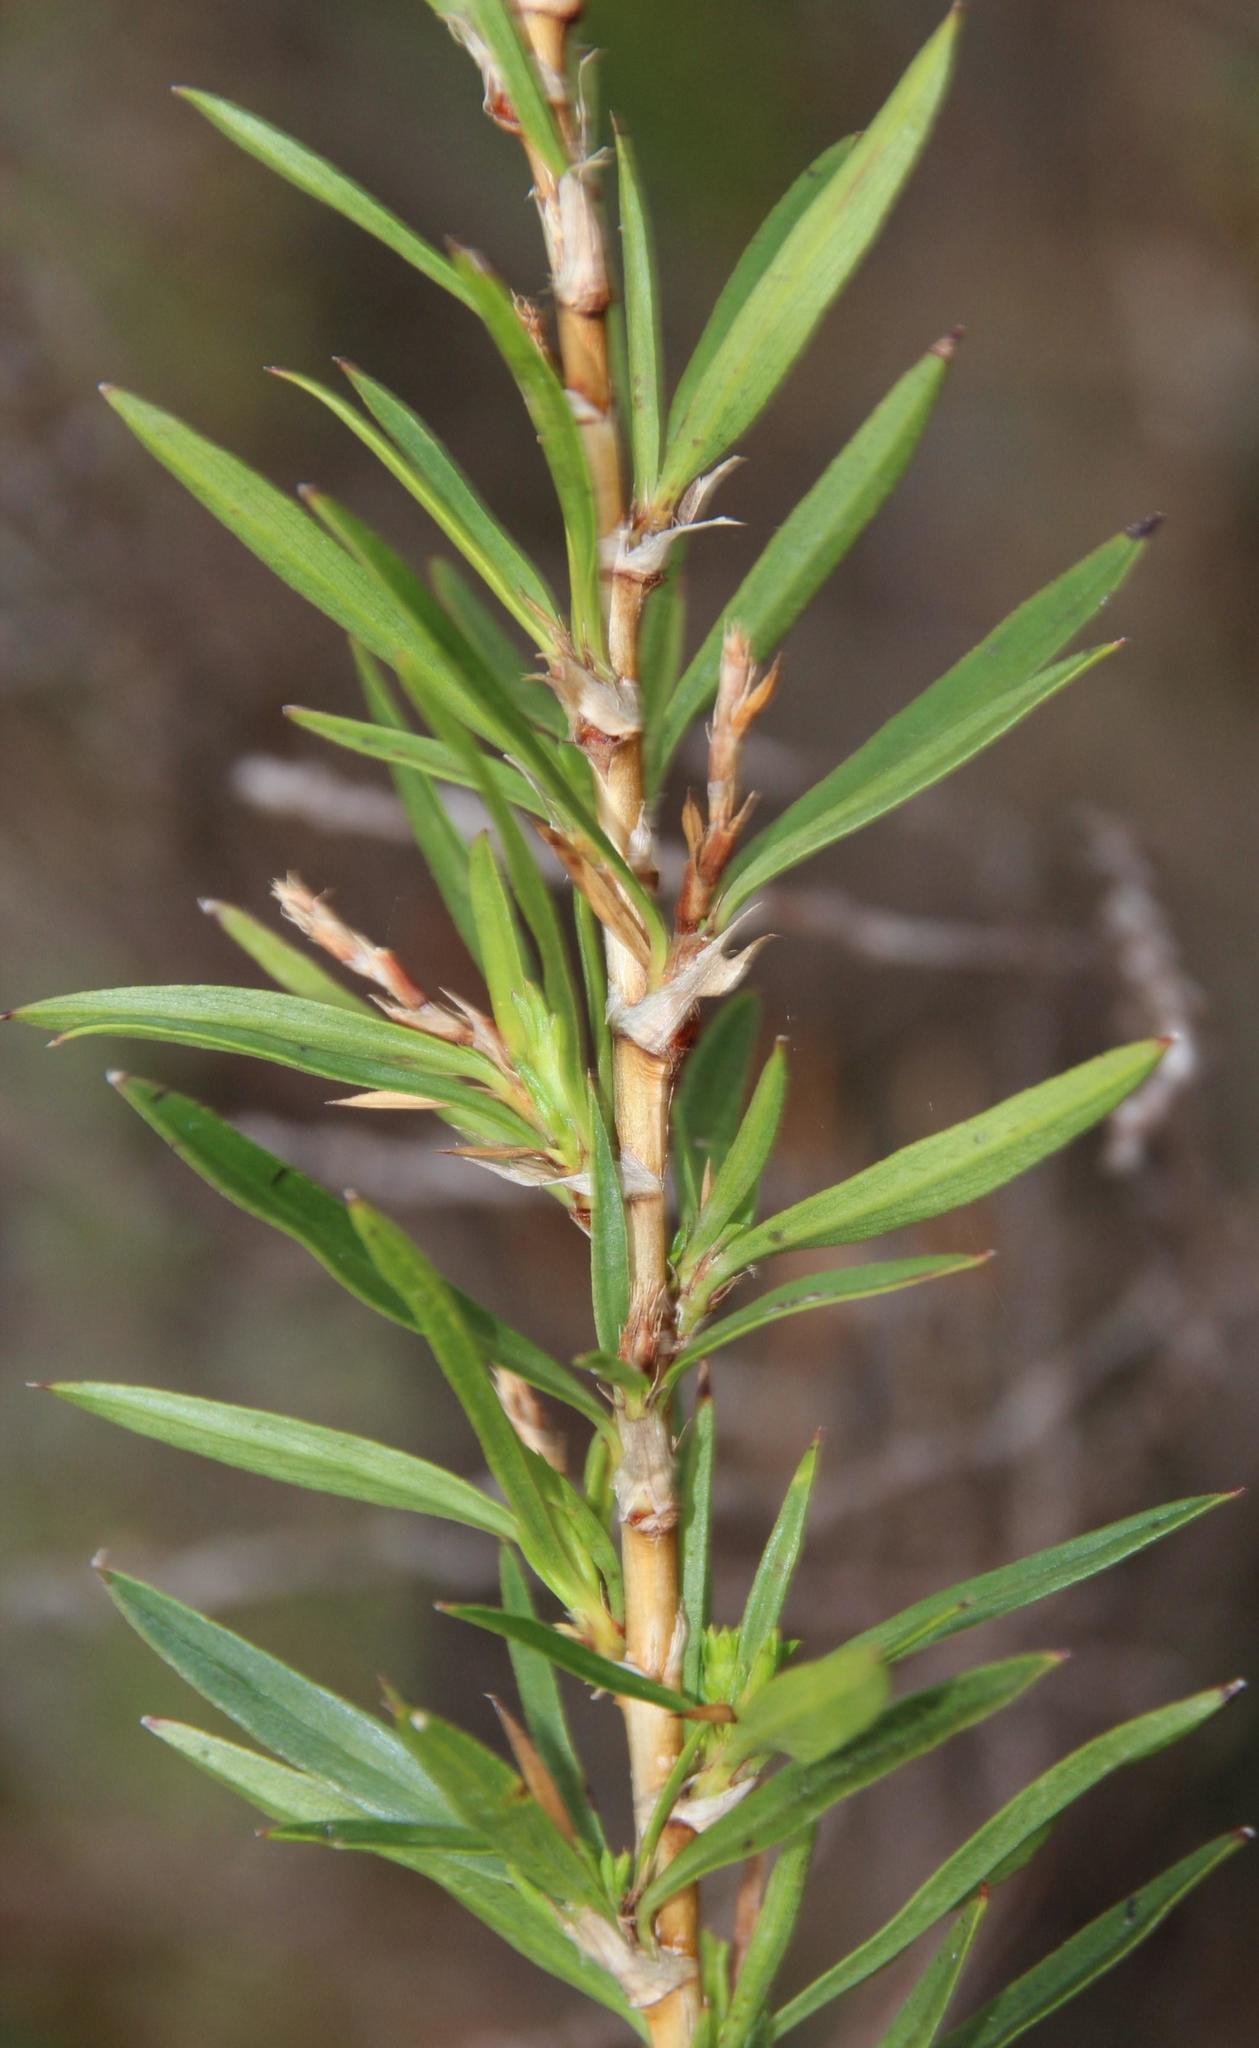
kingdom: Plantae
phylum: Tracheophyta
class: Magnoliopsida
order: Rosales
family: Rosaceae
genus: Cliffortia
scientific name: Cliffortia strobilifera
